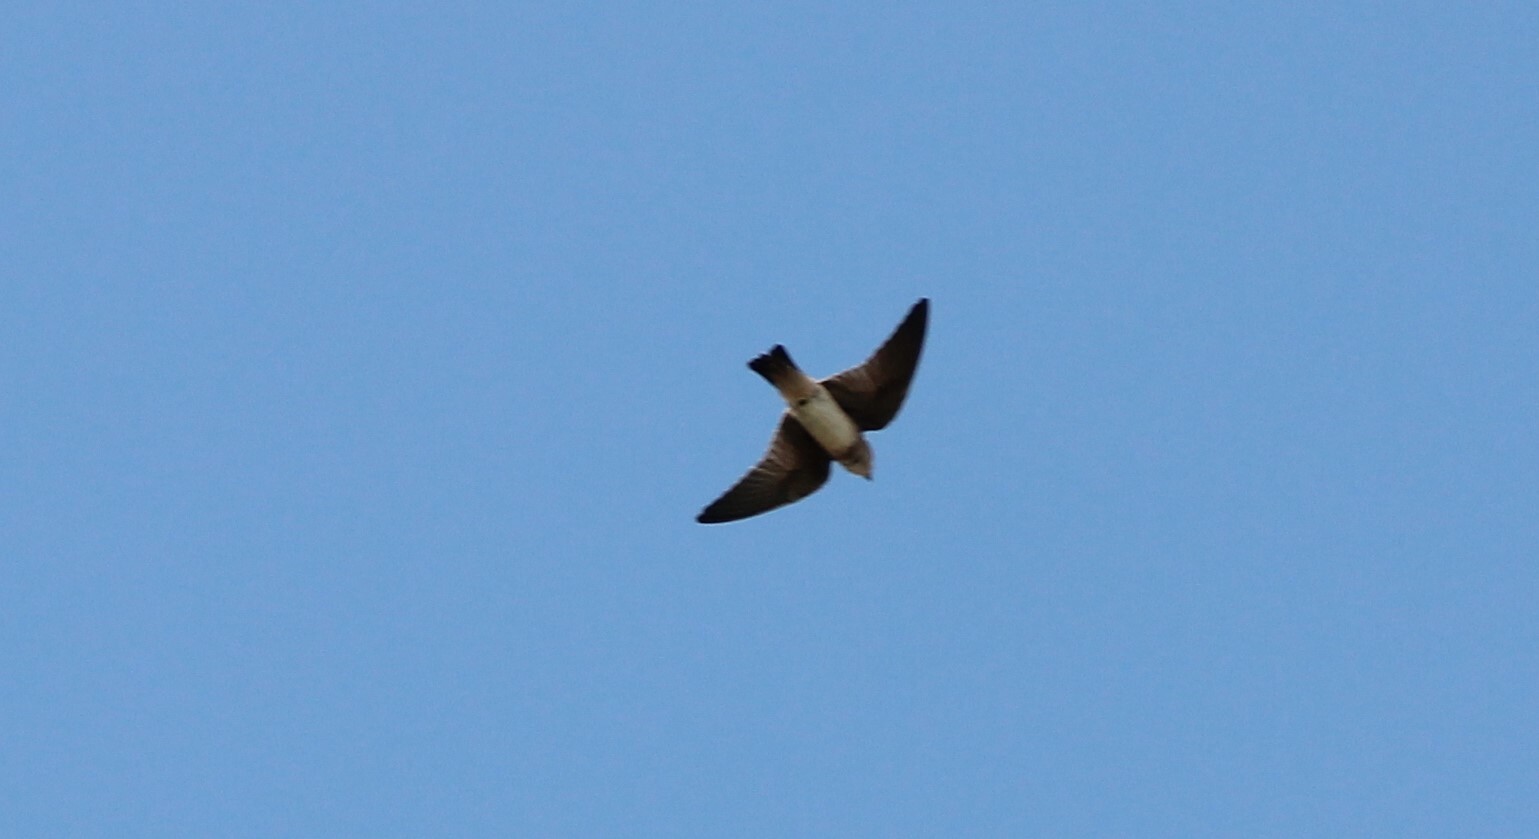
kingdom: Animalia
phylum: Chordata
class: Aves
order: Passeriformes
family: Hirundinidae
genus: Petrochelidon
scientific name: Petrochelidon fulva
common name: Cave swallow
